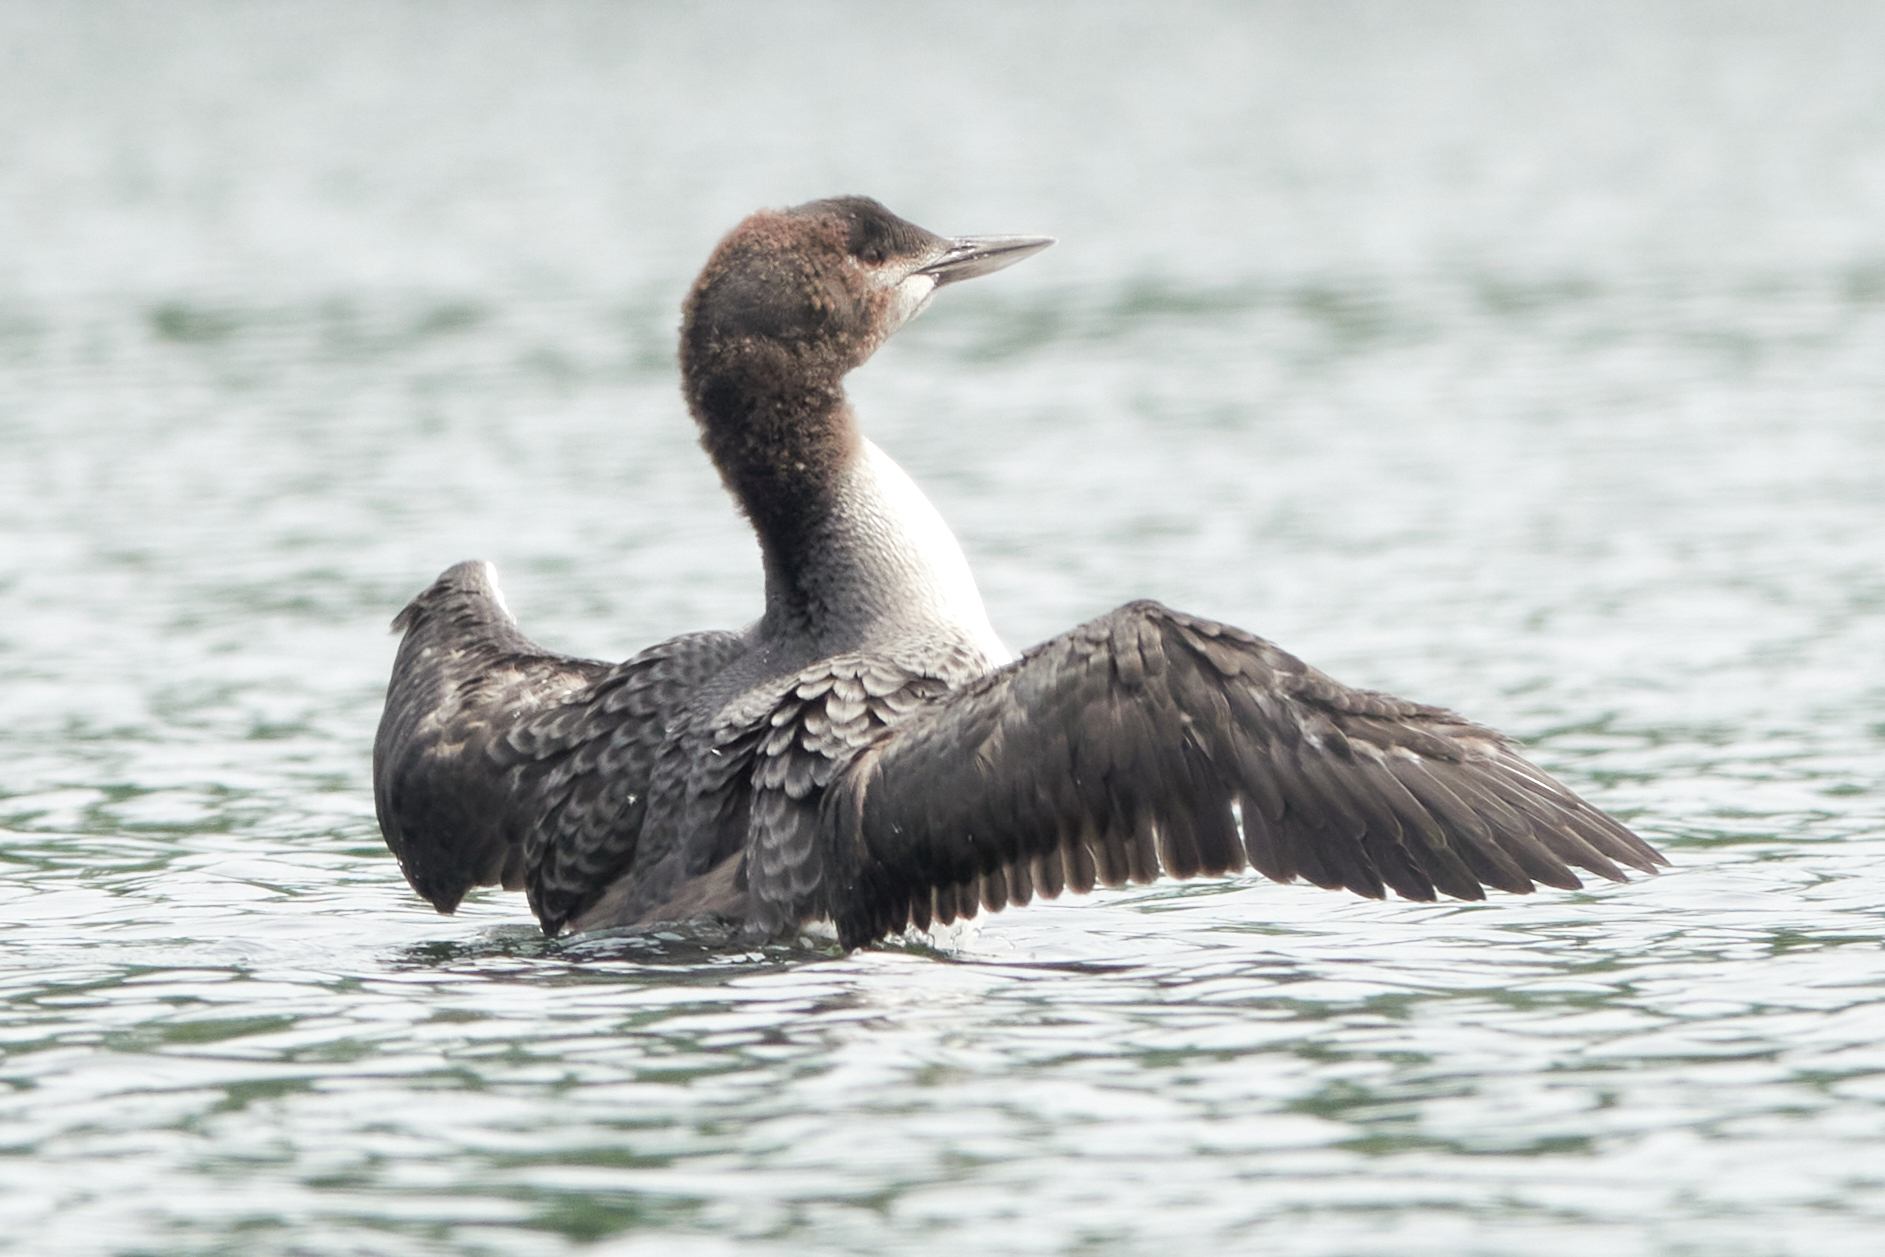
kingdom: Animalia
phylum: Chordata
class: Aves
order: Gaviiformes
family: Gaviidae
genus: Gavia
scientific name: Gavia immer
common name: Common loon
